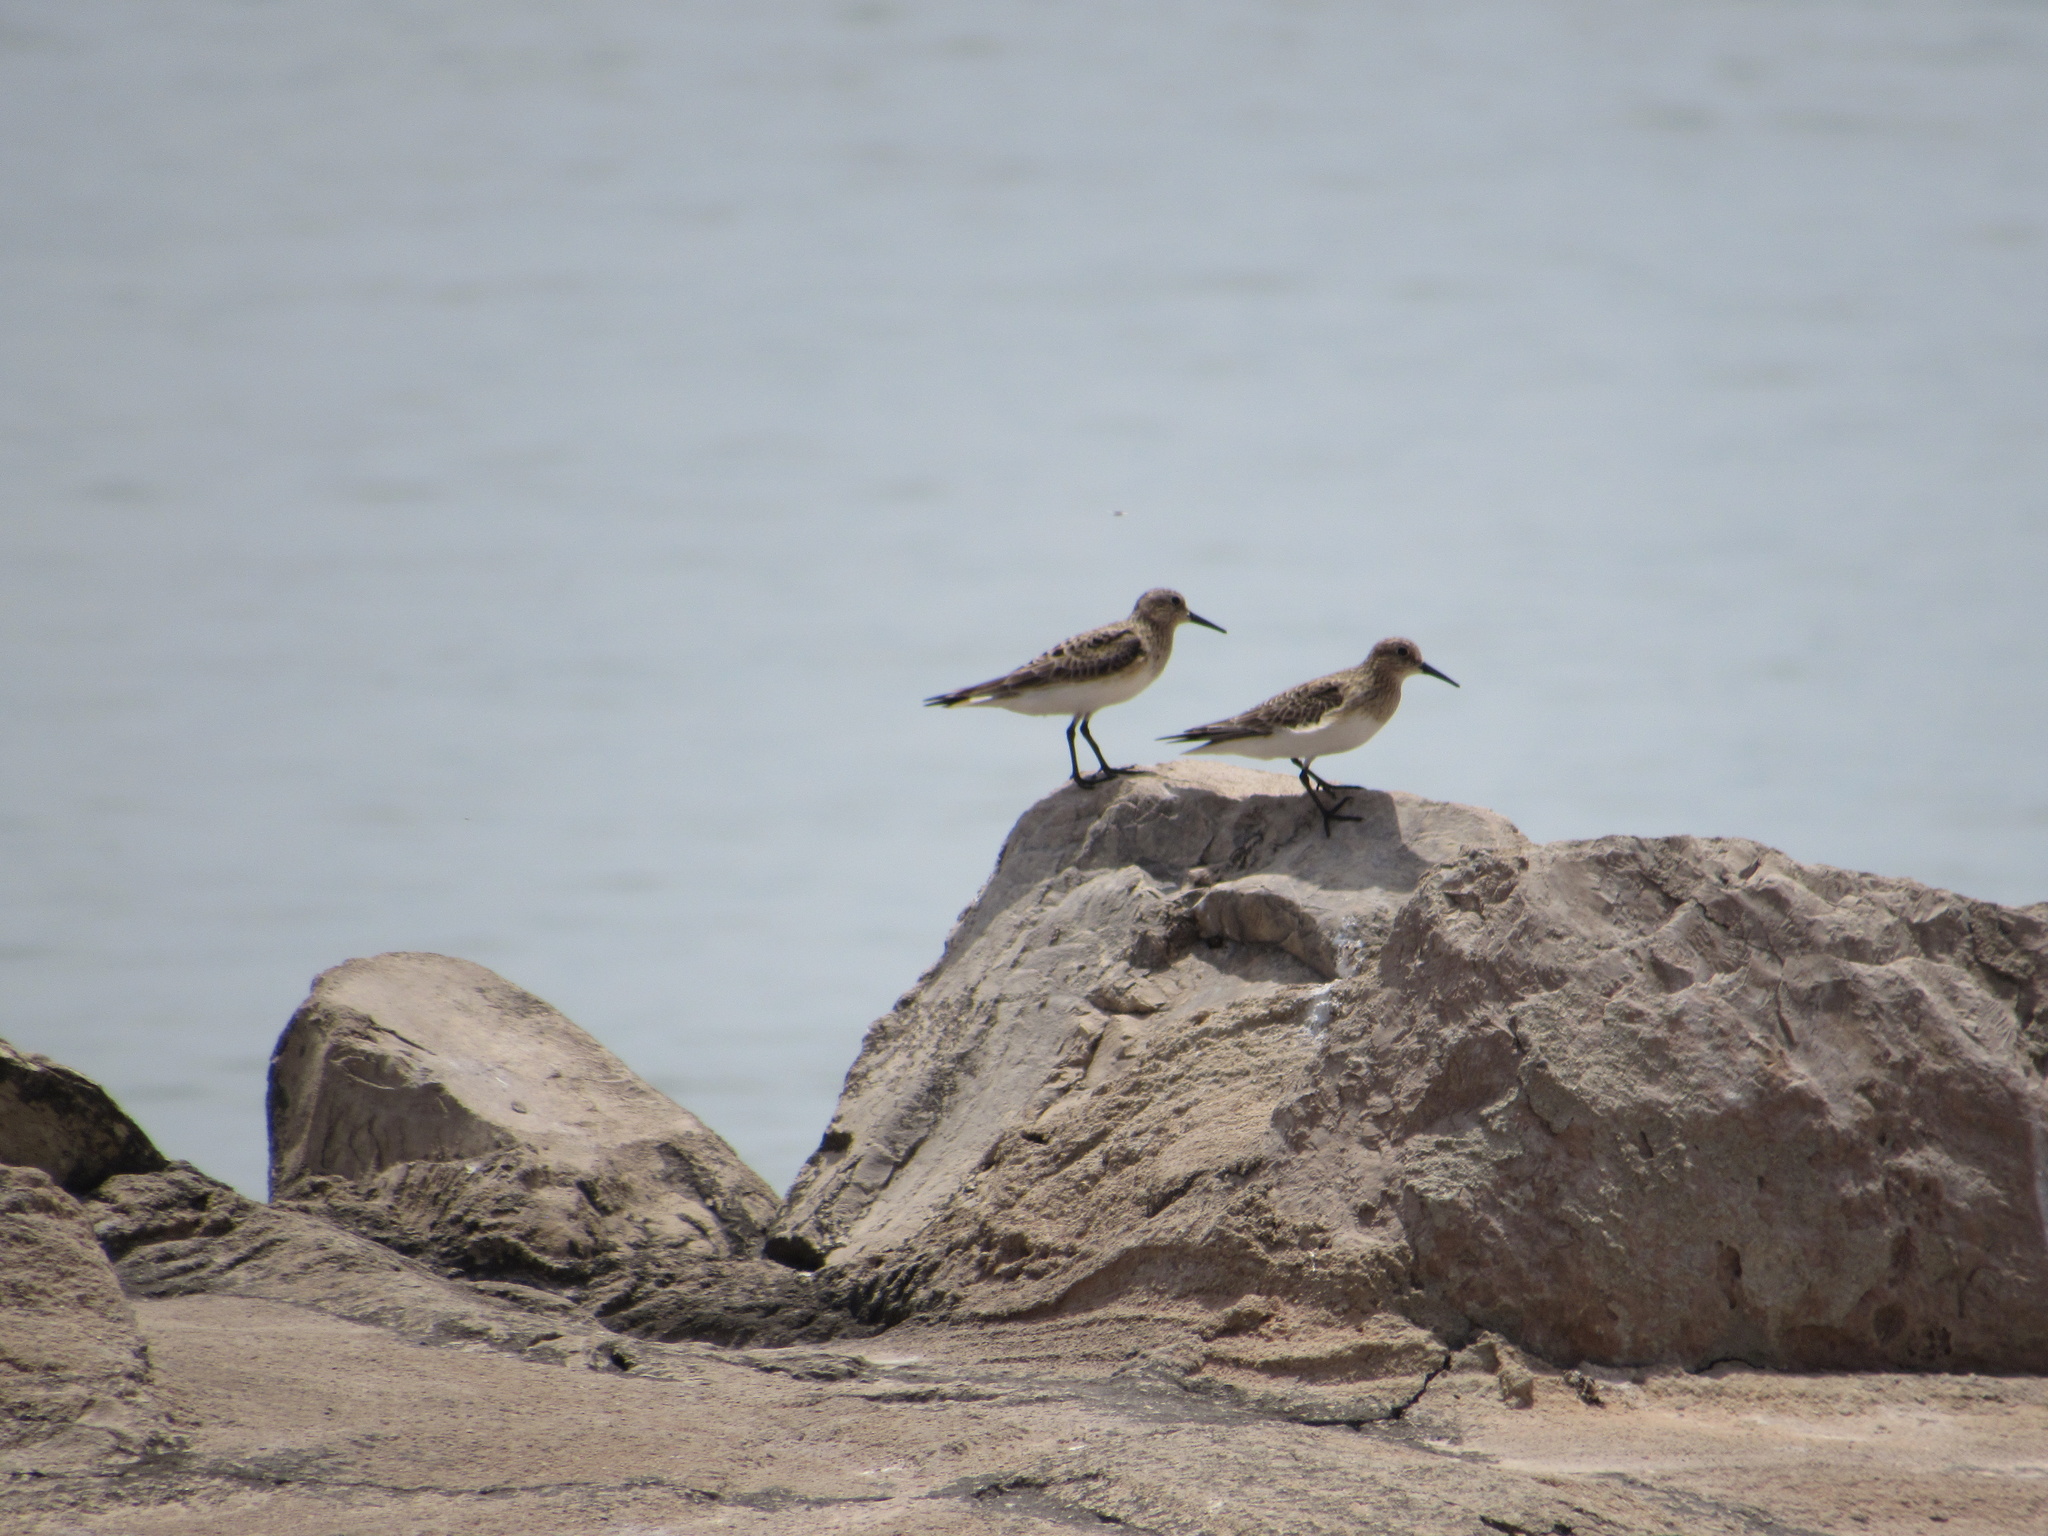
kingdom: Animalia
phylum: Chordata
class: Aves
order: Charadriiformes
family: Scolopacidae
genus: Calidris
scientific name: Calidris bairdii
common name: Baird's sandpiper
